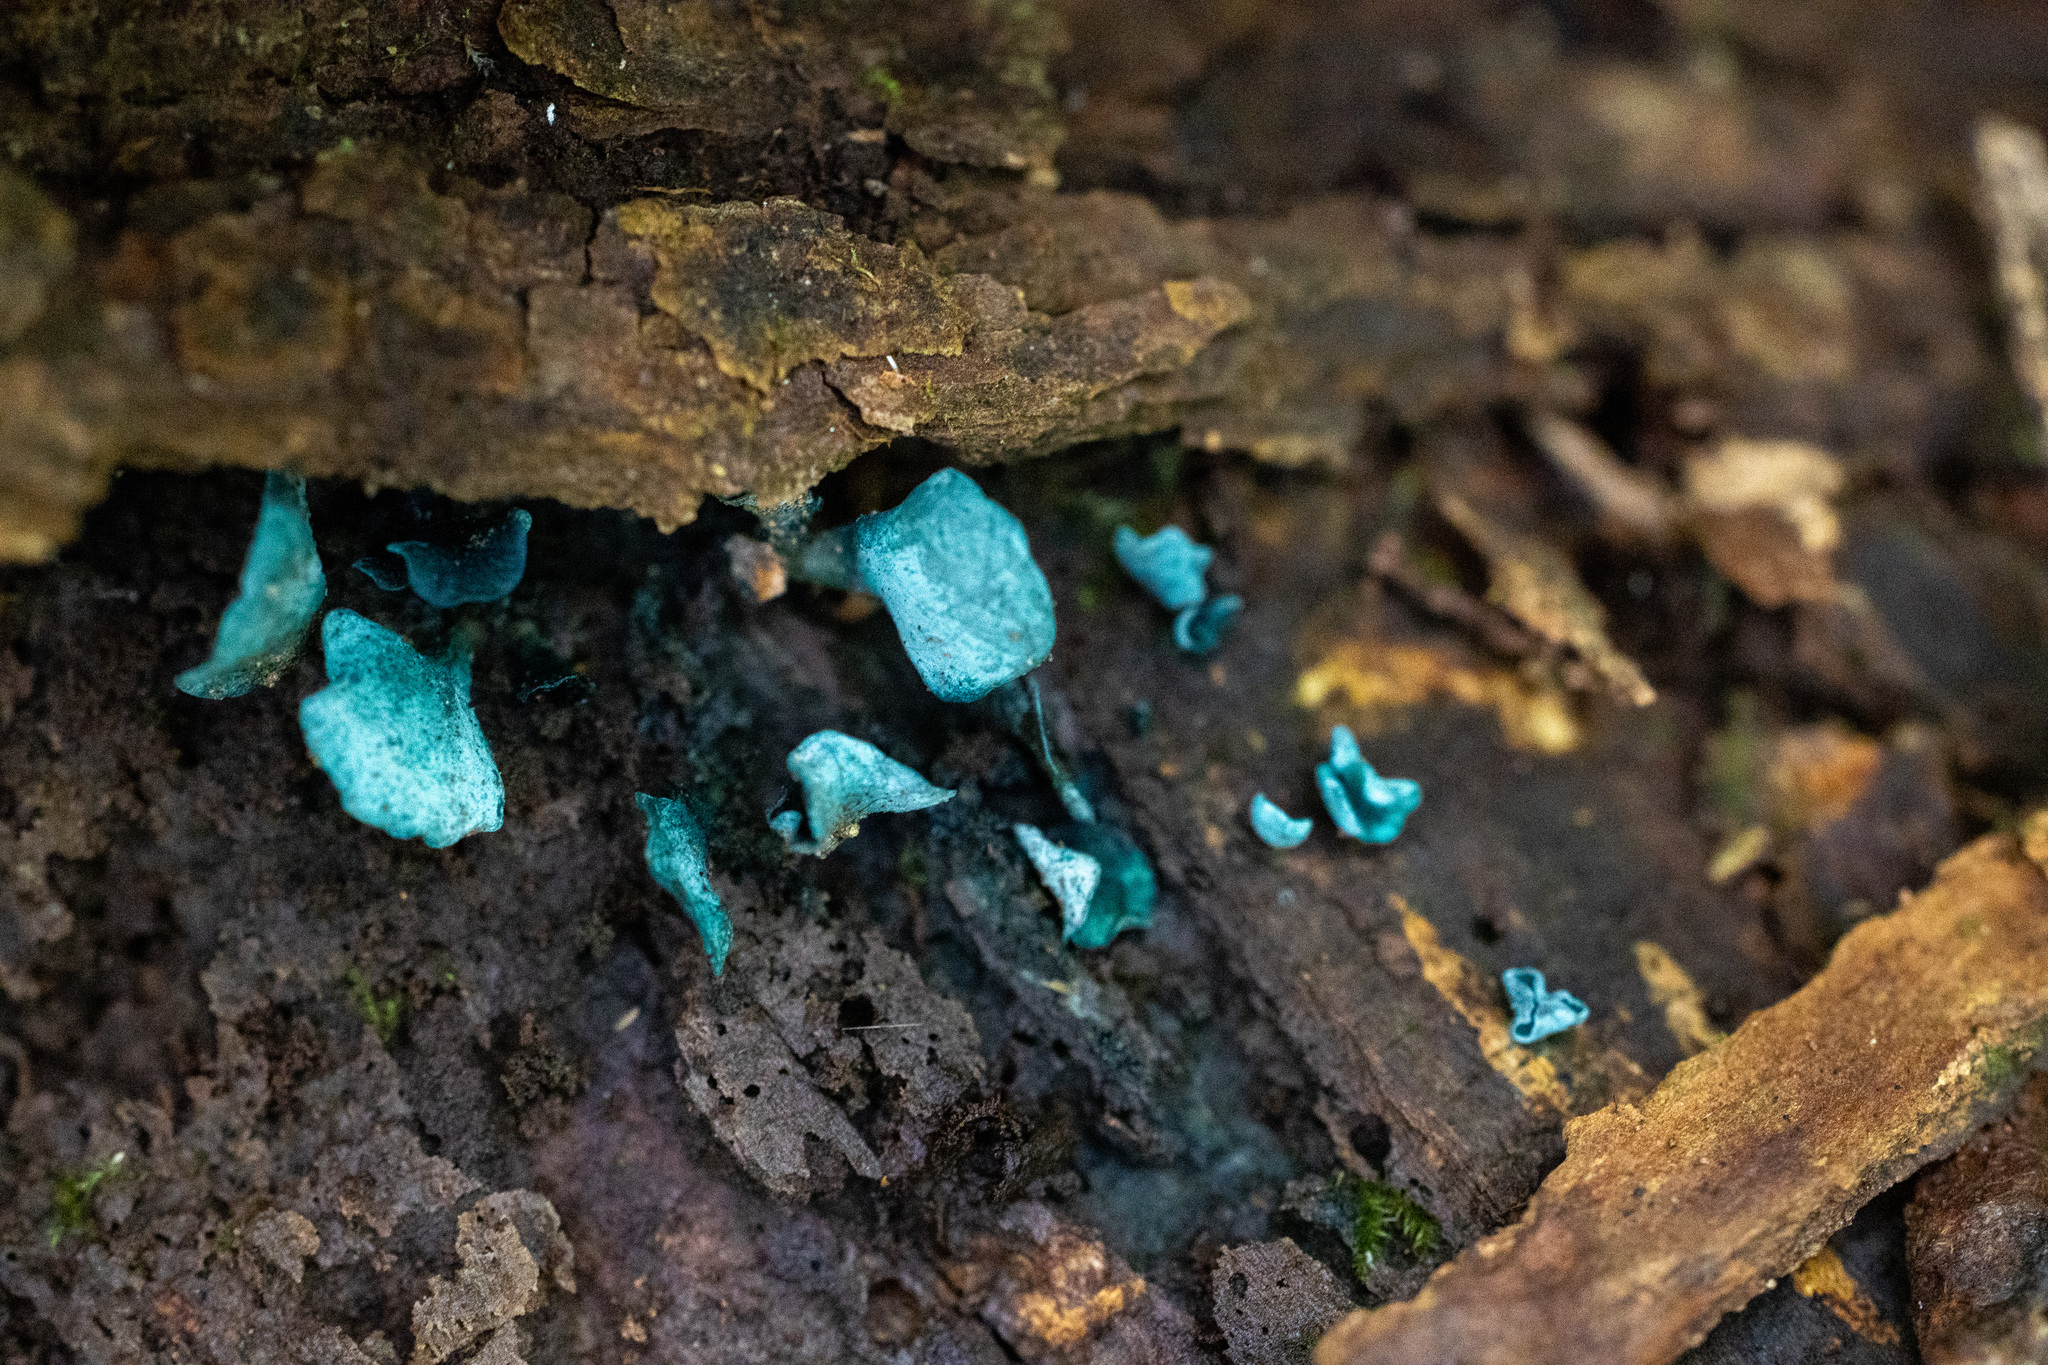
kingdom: Fungi
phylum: Ascomycota
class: Leotiomycetes
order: Helotiales
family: Chlorociboriaceae
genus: Chlorociboria
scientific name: Chlorociboria aeruginascens
